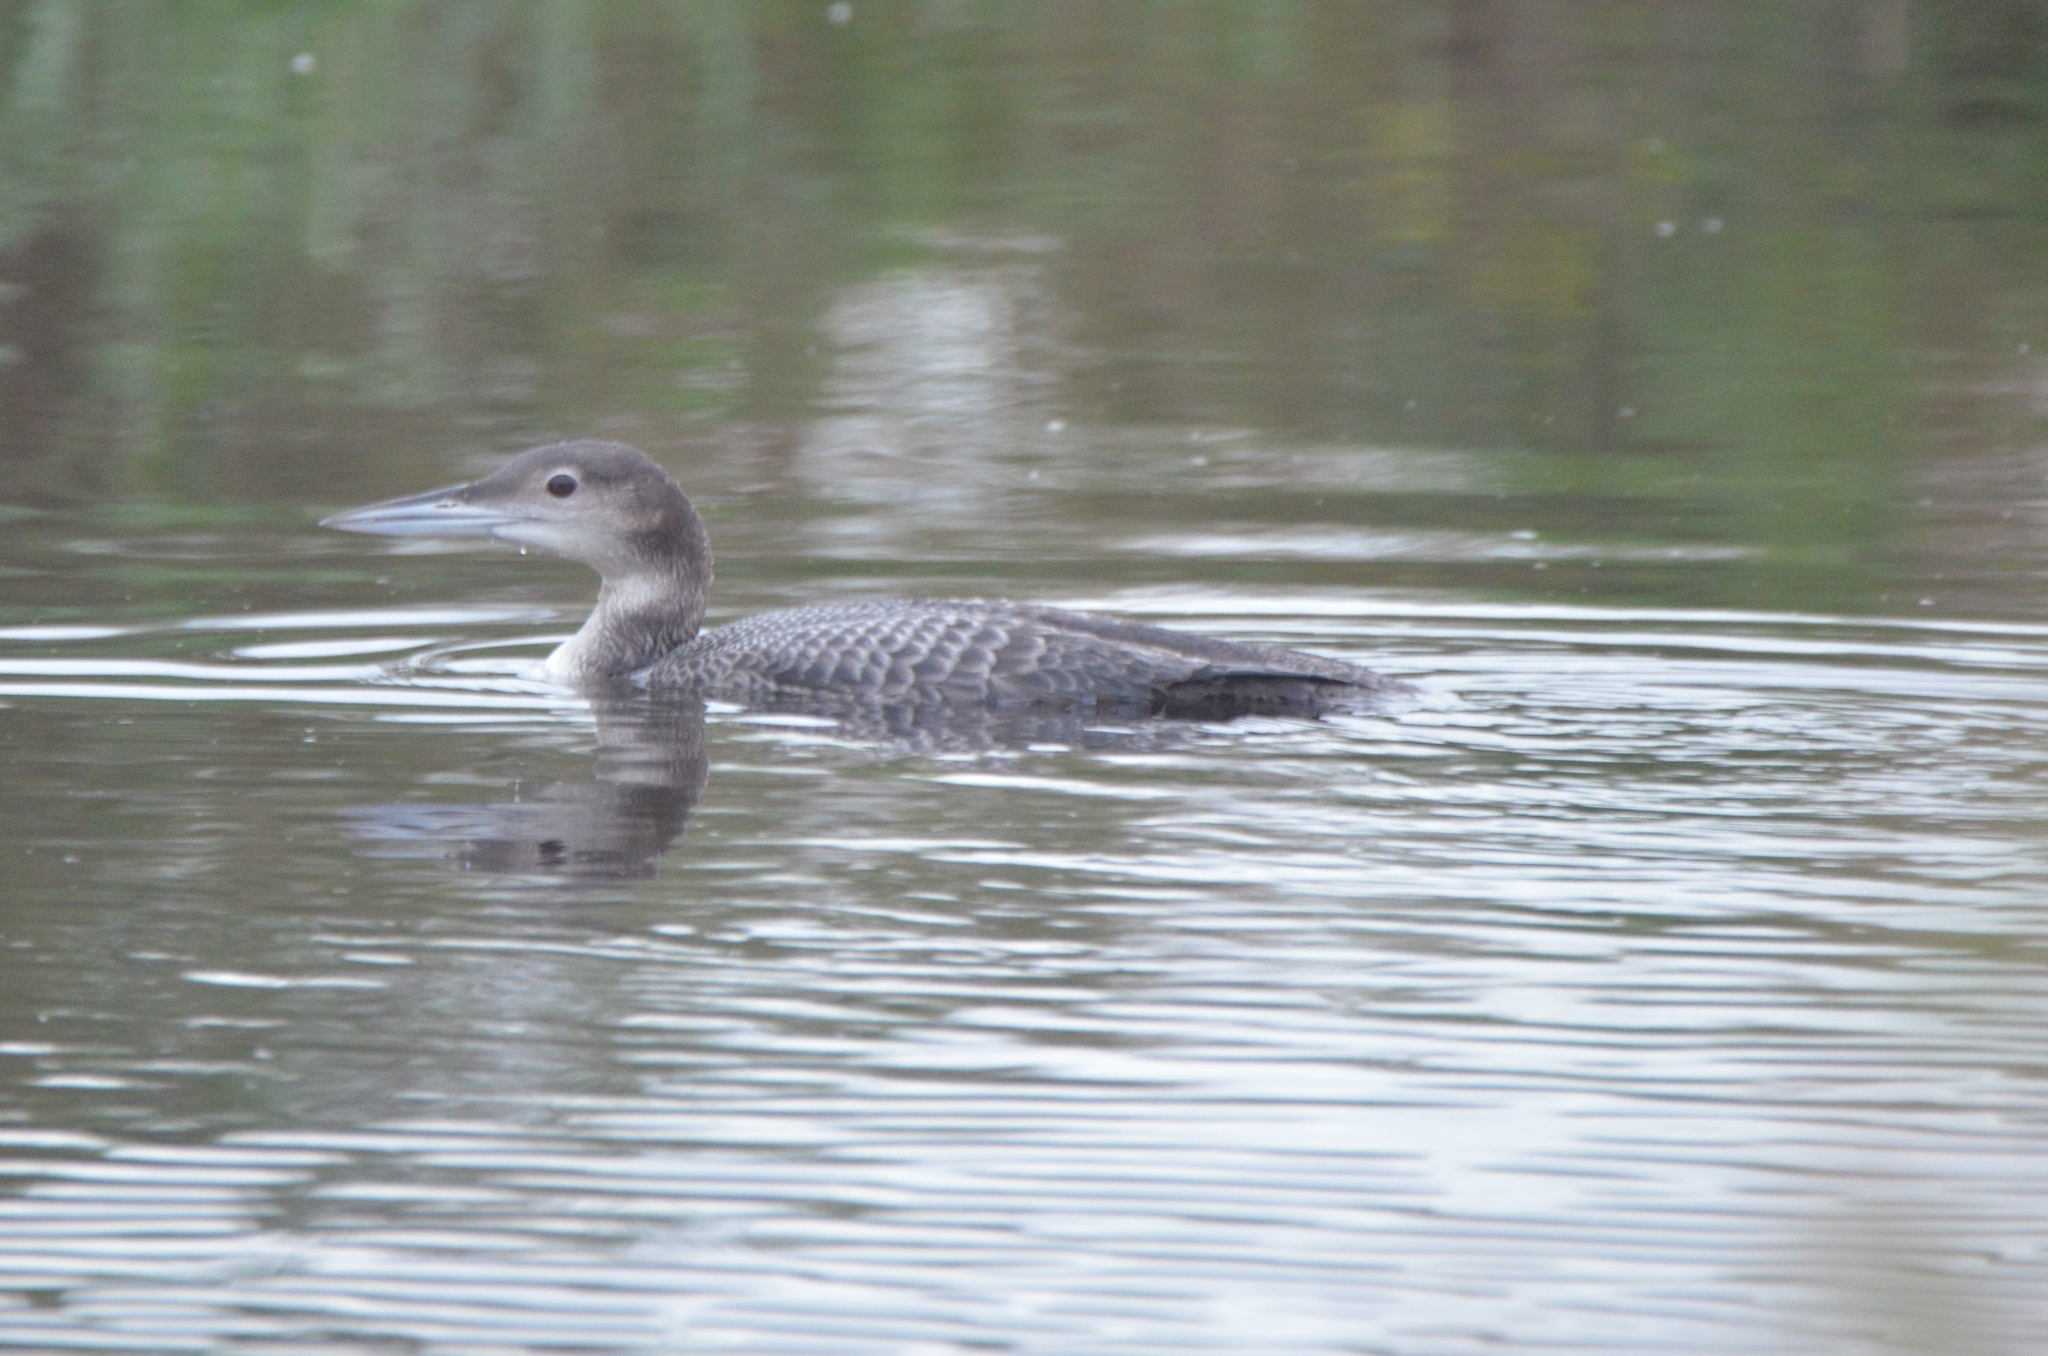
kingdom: Animalia
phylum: Chordata
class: Aves
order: Gaviiformes
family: Gaviidae
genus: Gavia
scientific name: Gavia immer
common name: Common loon
